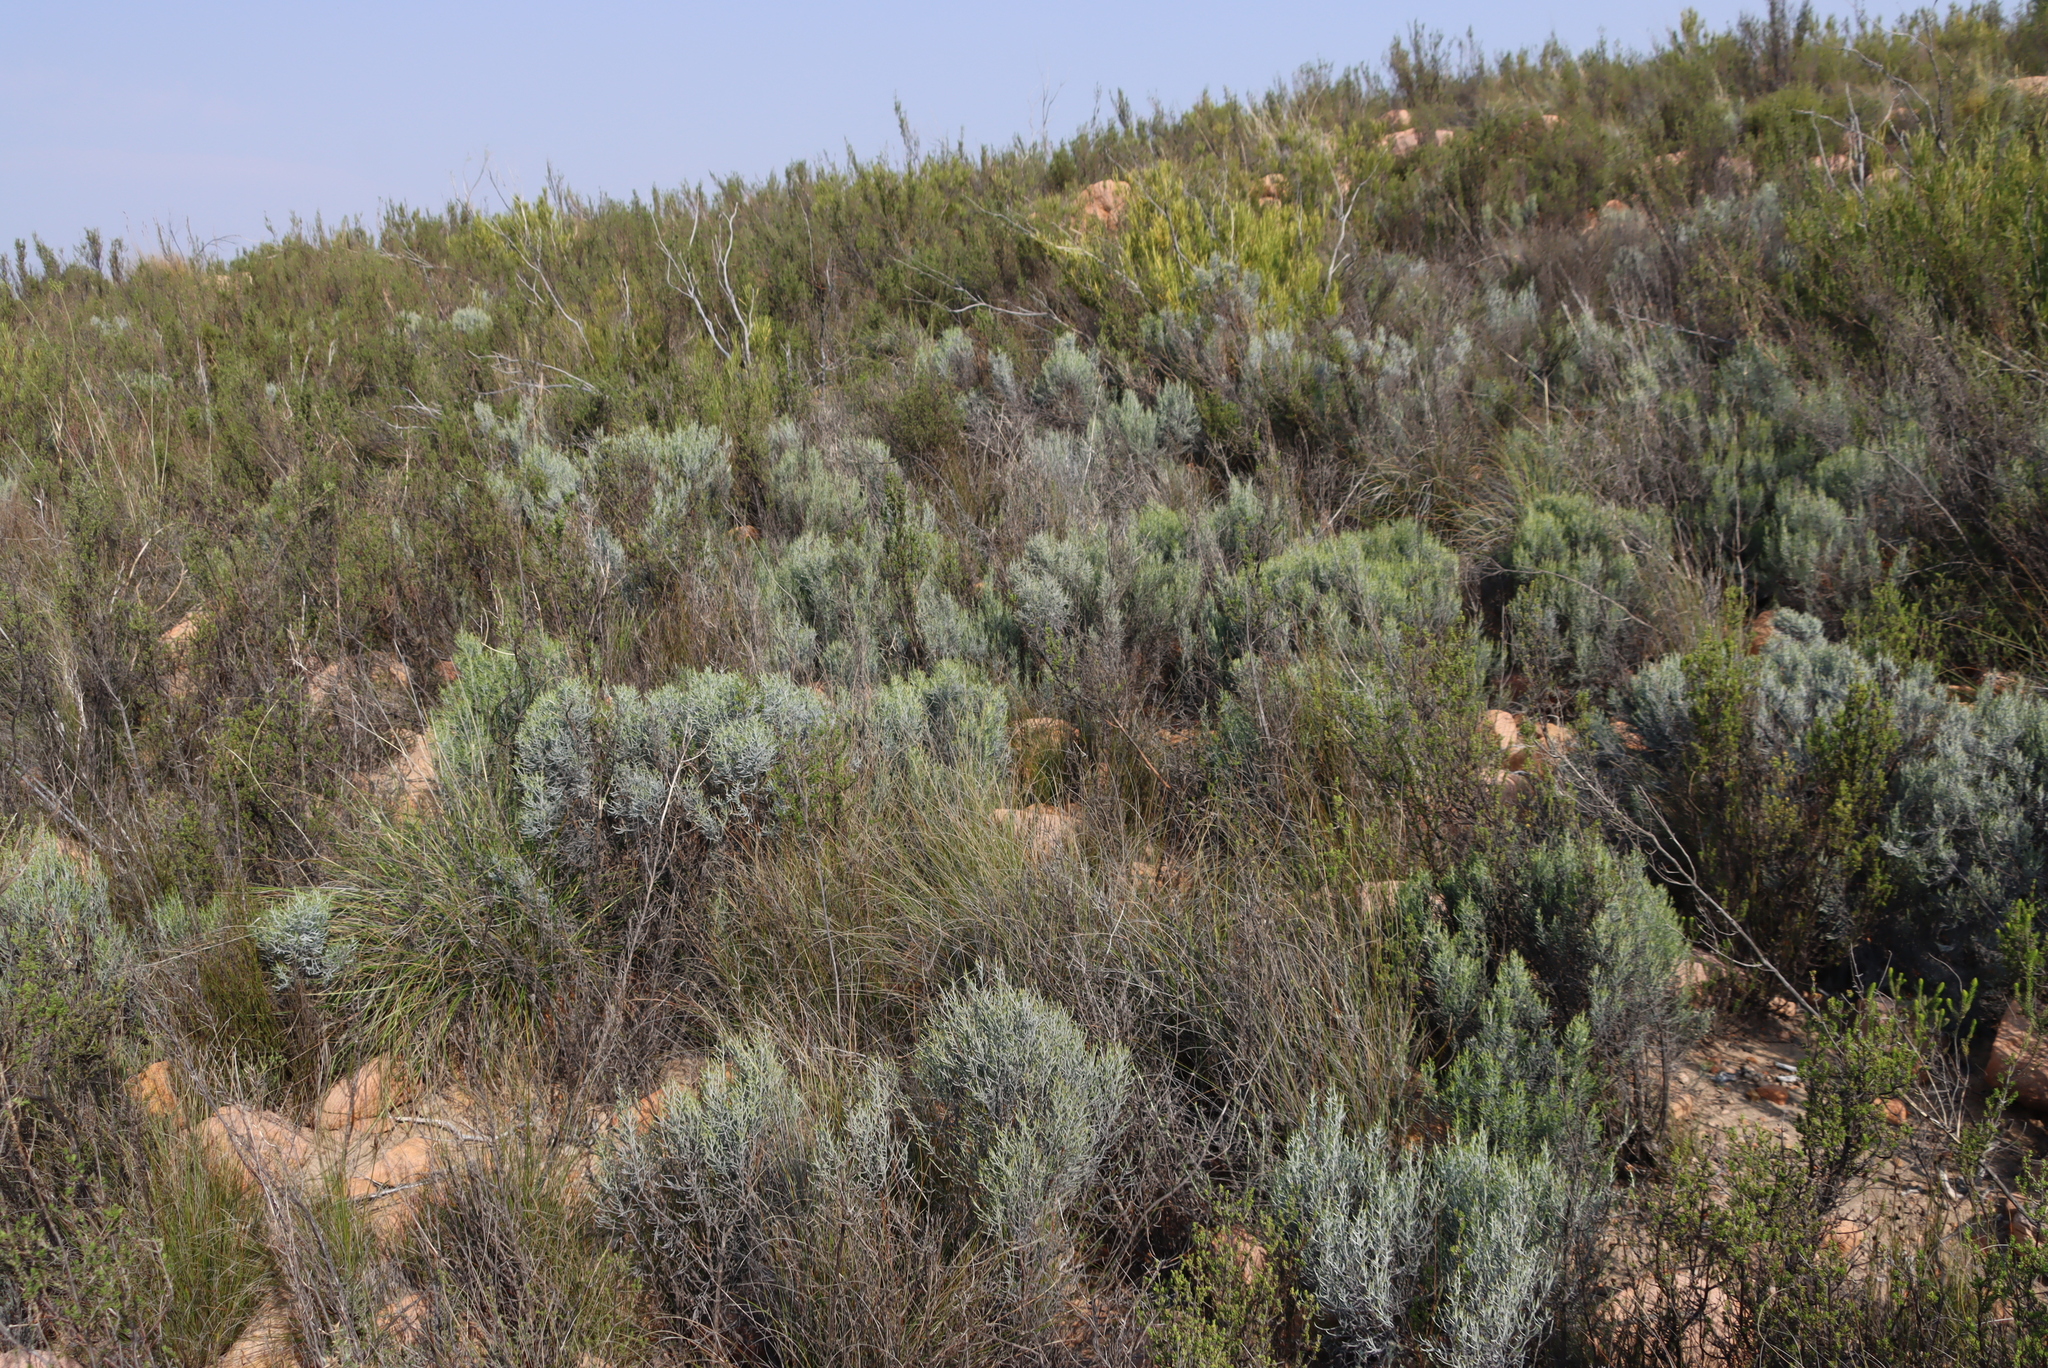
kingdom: Plantae
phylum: Tracheophyta
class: Magnoliopsida
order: Asterales
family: Asteraceae
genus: Dicerothamnus
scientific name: Dicerothamnus adpressus
